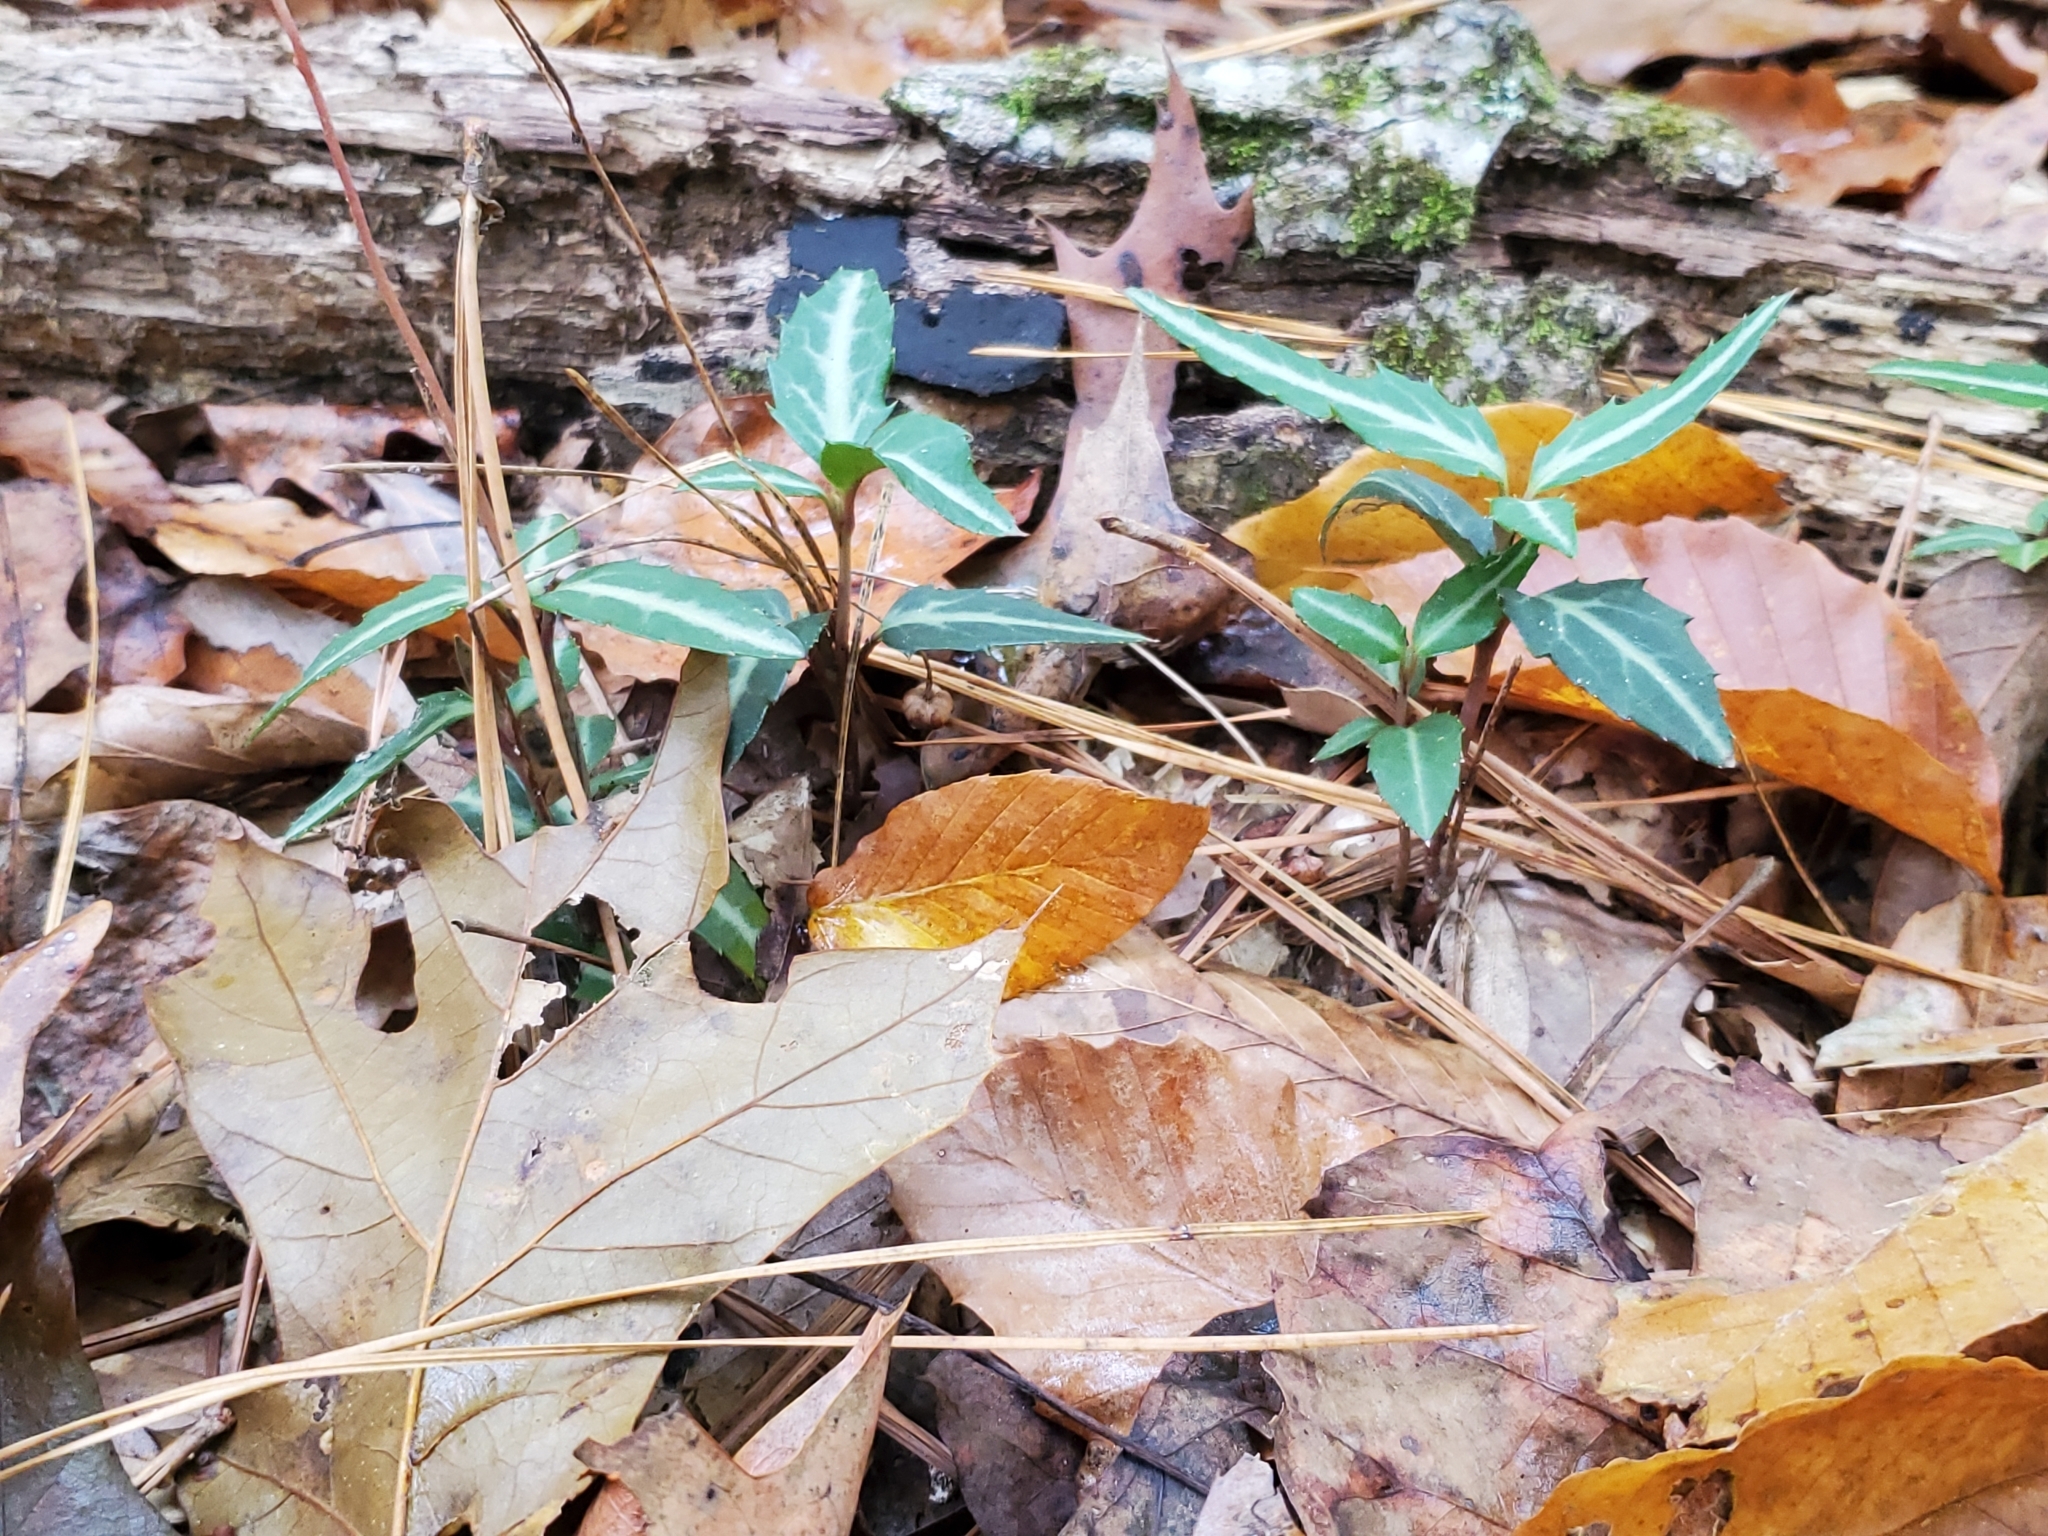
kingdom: Plantae
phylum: Tracheophyta
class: Magnoliopsida
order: Ericales
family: Ericaceae
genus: Chimaphila
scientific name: Chimaphila maculata
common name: Spotted pipsissewa
